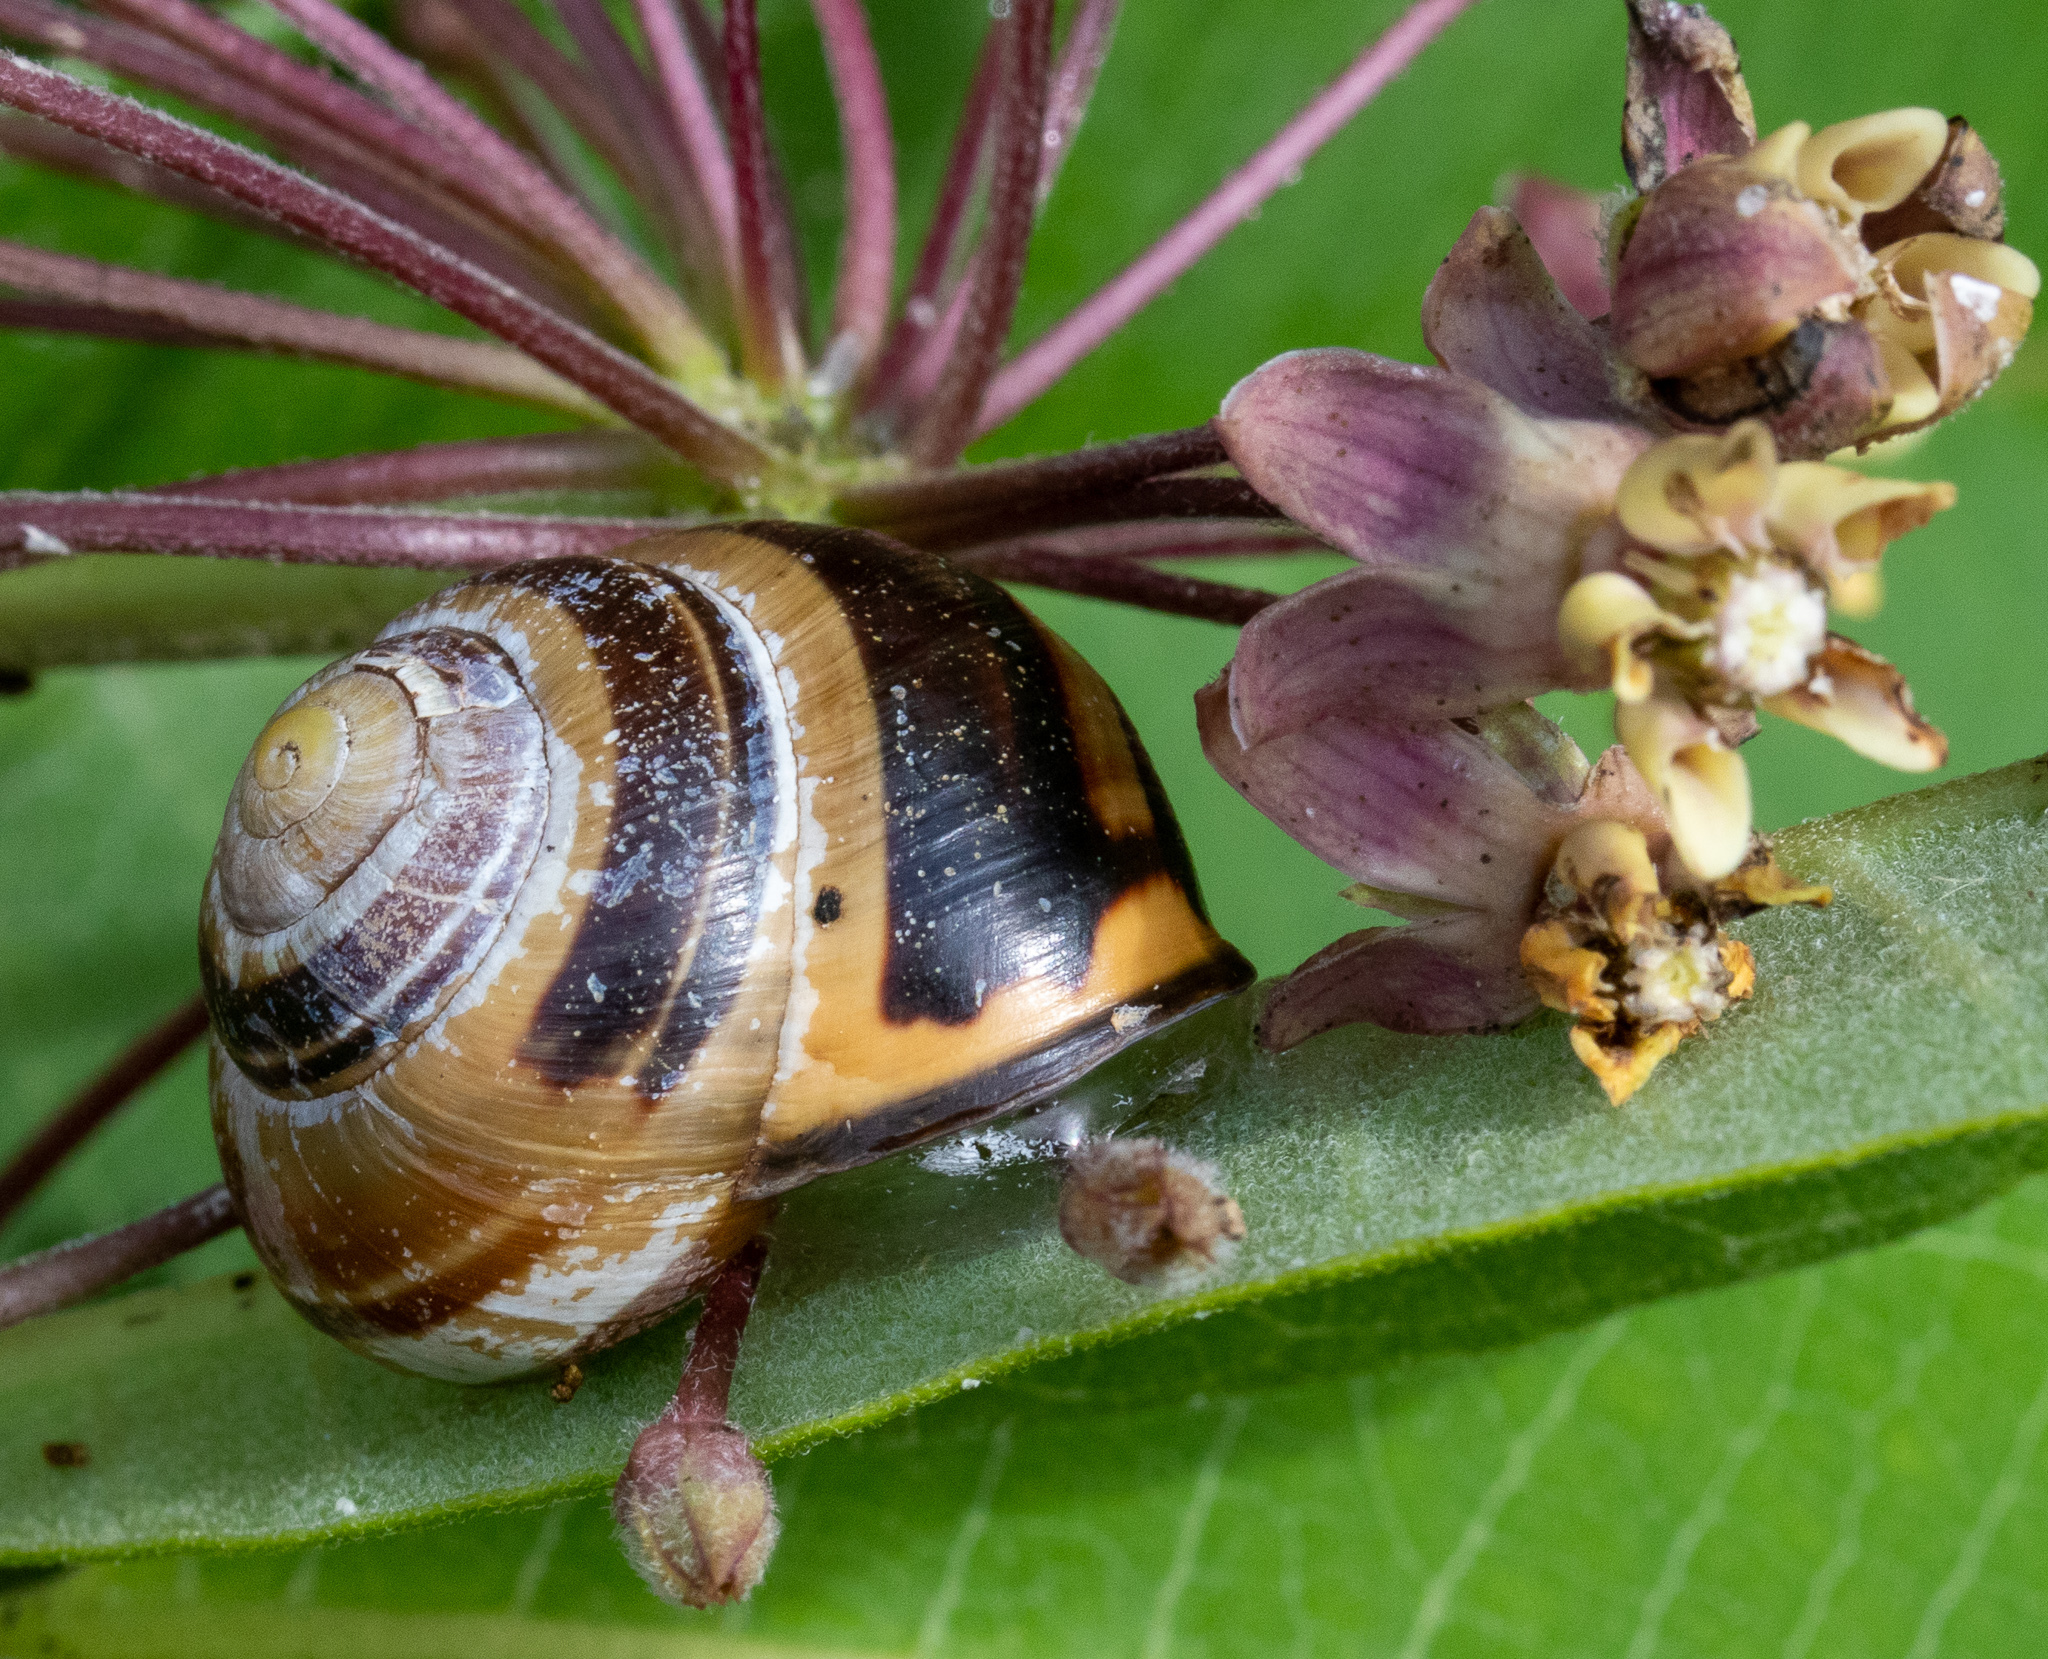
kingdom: Animalia
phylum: Mollusca
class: Gastropoda
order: Stylommatophora
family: Helicidae
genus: Cepaea
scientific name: Cepaea nemoralis
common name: Grovesnail
